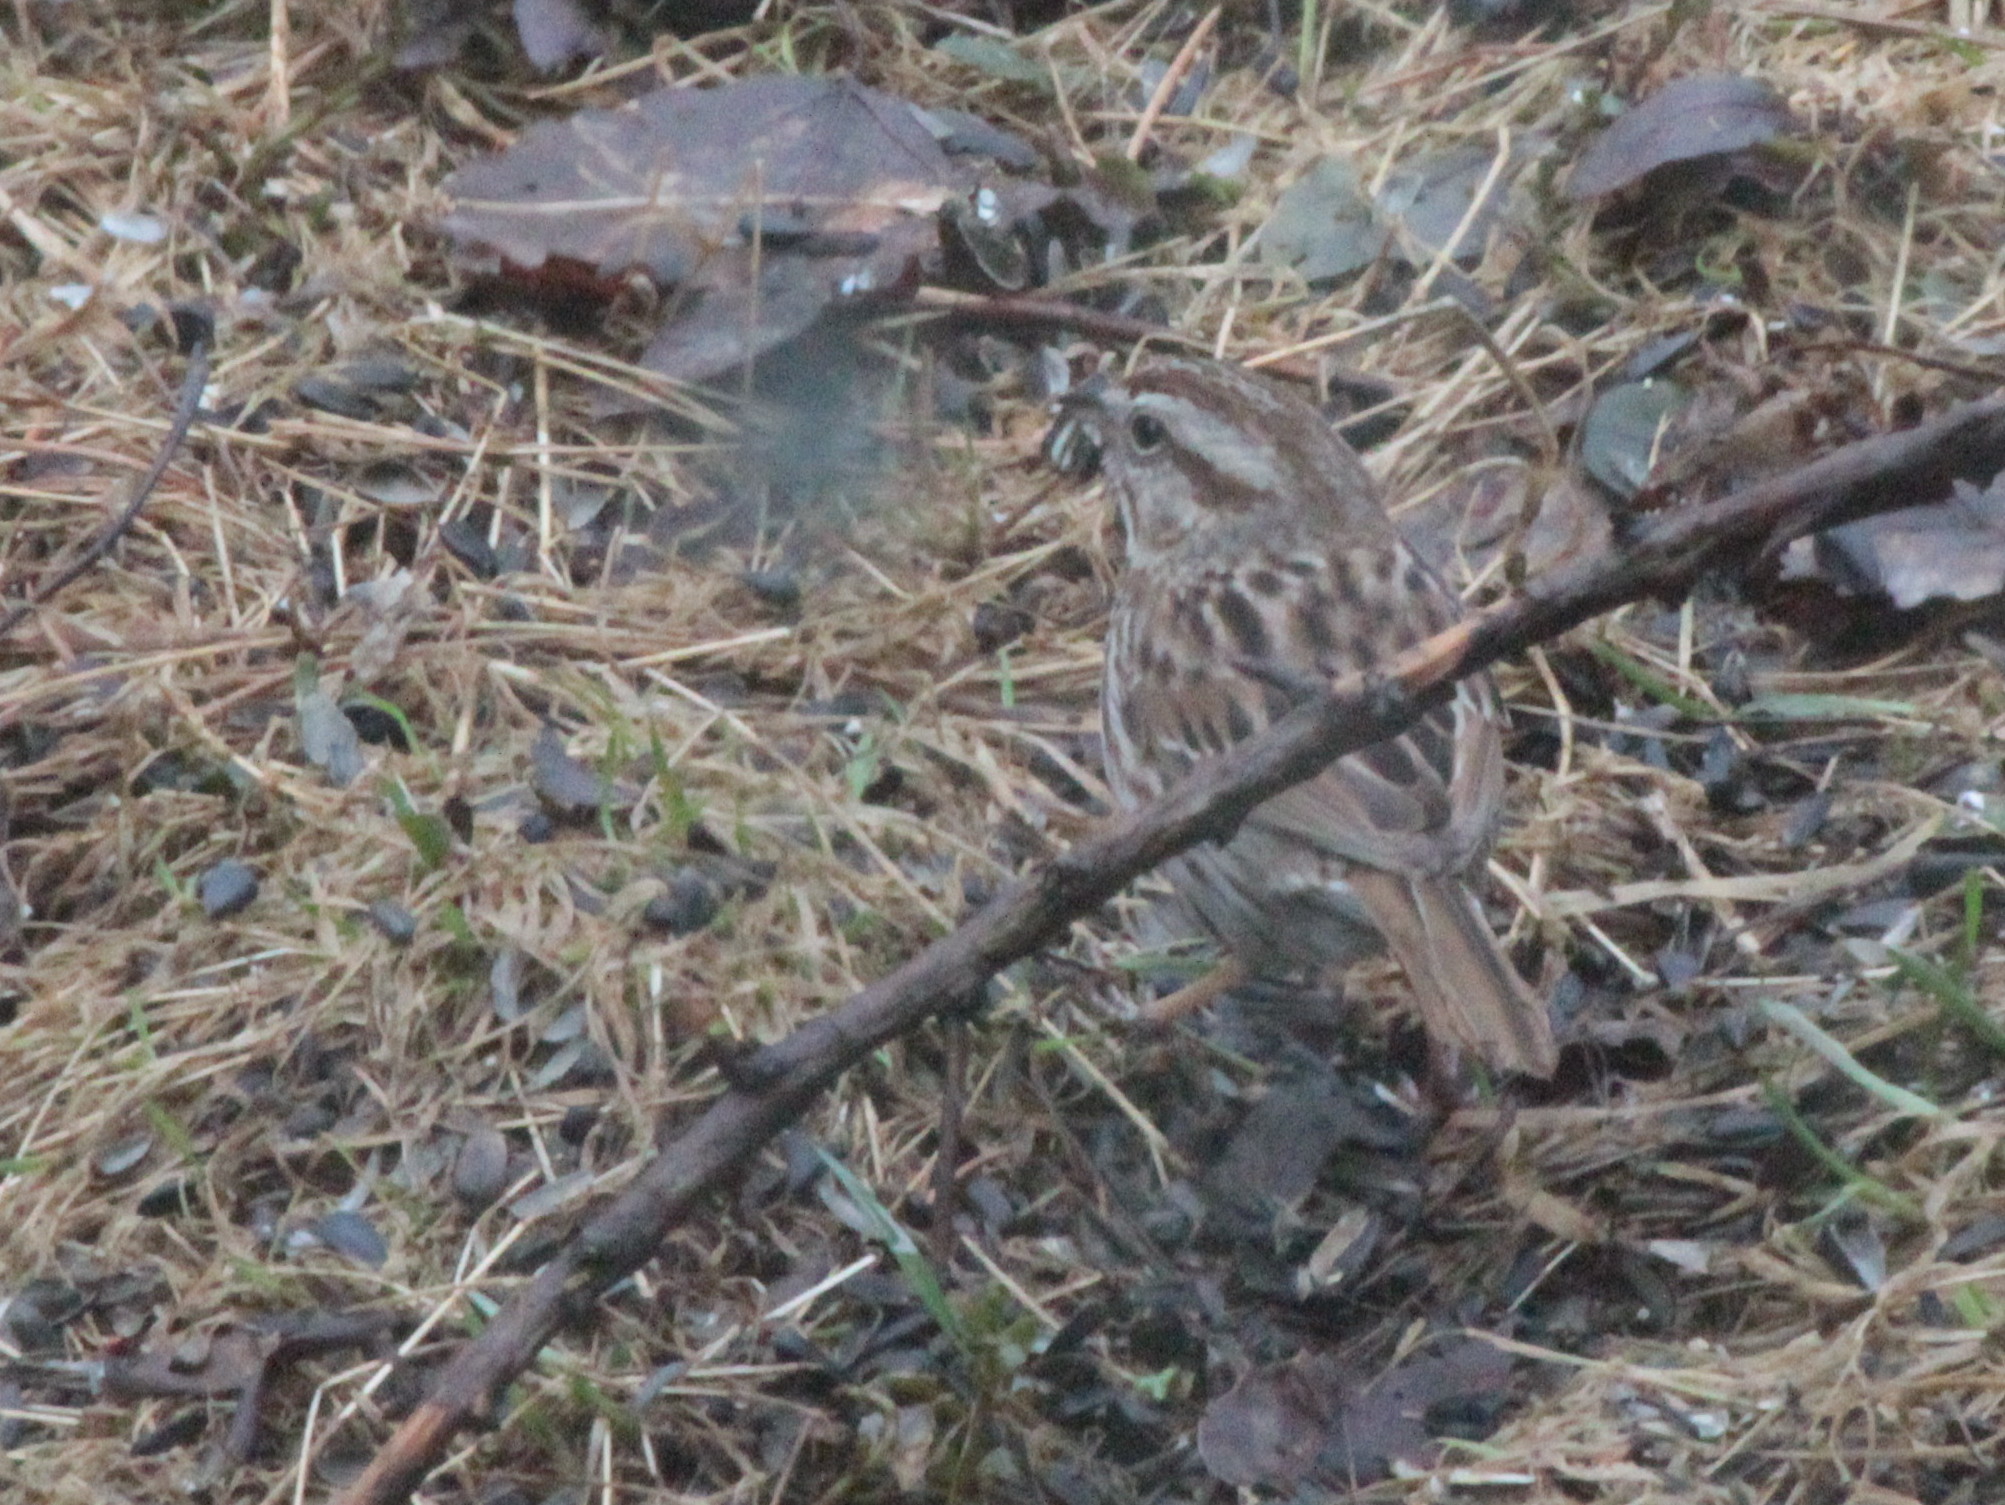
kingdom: Animalia
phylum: Chordata
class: Aves
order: Passeriformes
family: Passerellidae
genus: Melospiza
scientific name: Melospiza melodia
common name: Song sparrow
